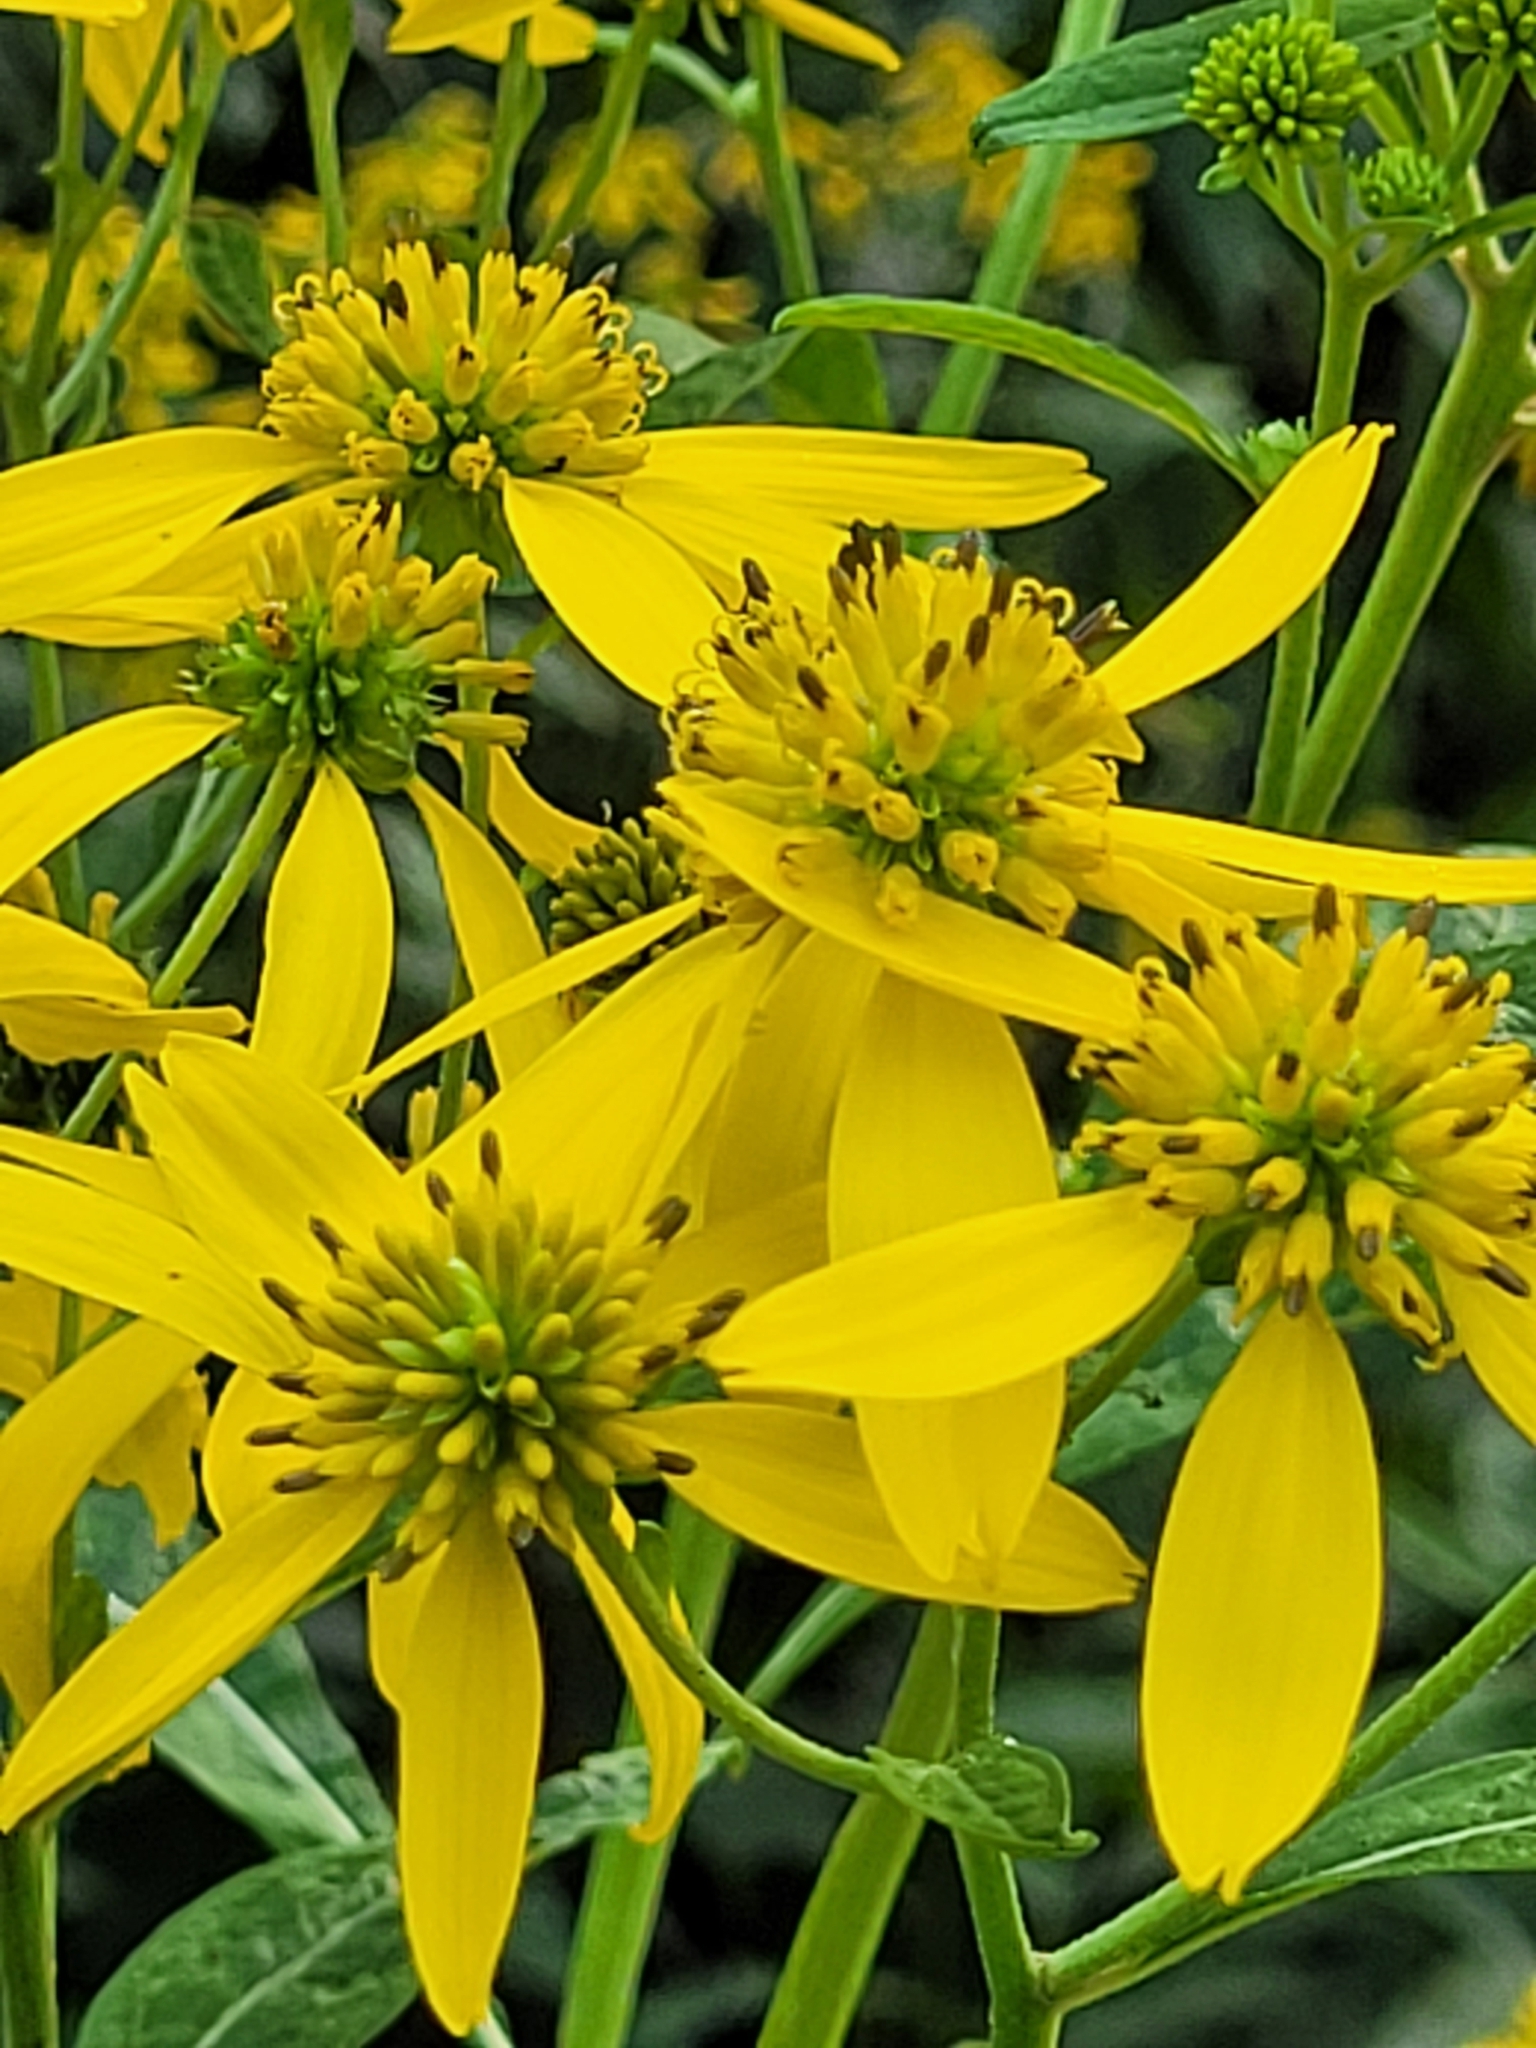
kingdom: Plantae
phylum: Tracheophyta
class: Magnoliopsida
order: Asterales
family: Asteraceae
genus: Verbesina
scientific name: Verbesina alternifolia
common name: Wingstem
